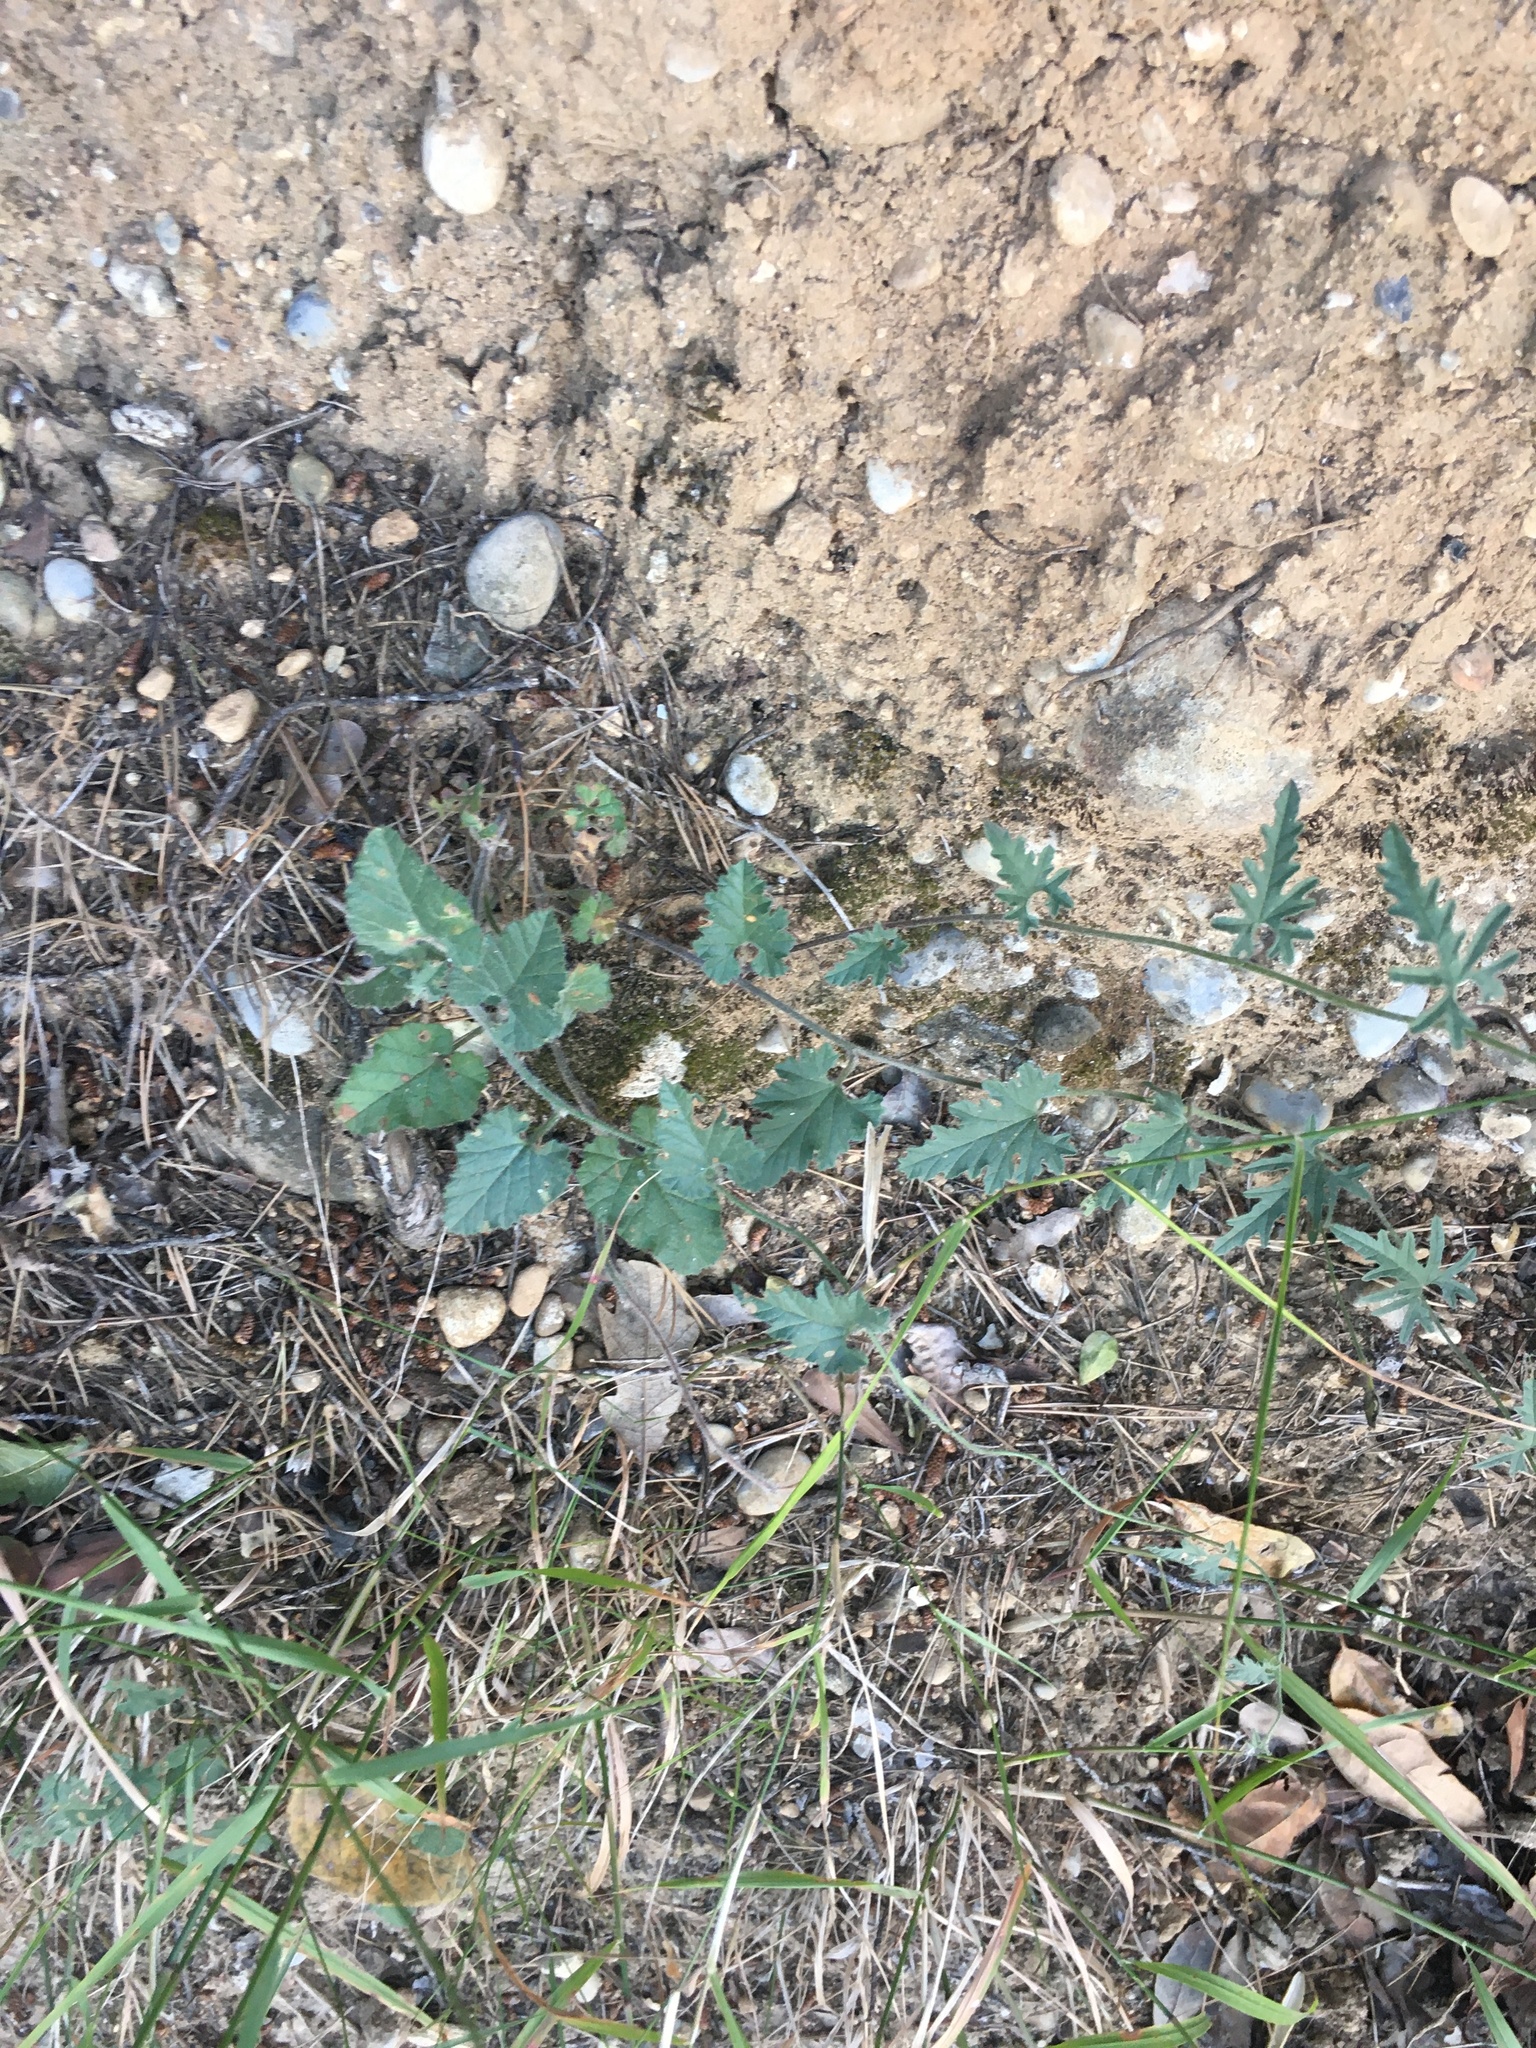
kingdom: Plantae
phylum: Tracheophyta
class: Magnoliopsida
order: Solanales
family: Convolvulaceae
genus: Convolvulus
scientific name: Convolvulus althaeoides
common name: Mallow bindweed
